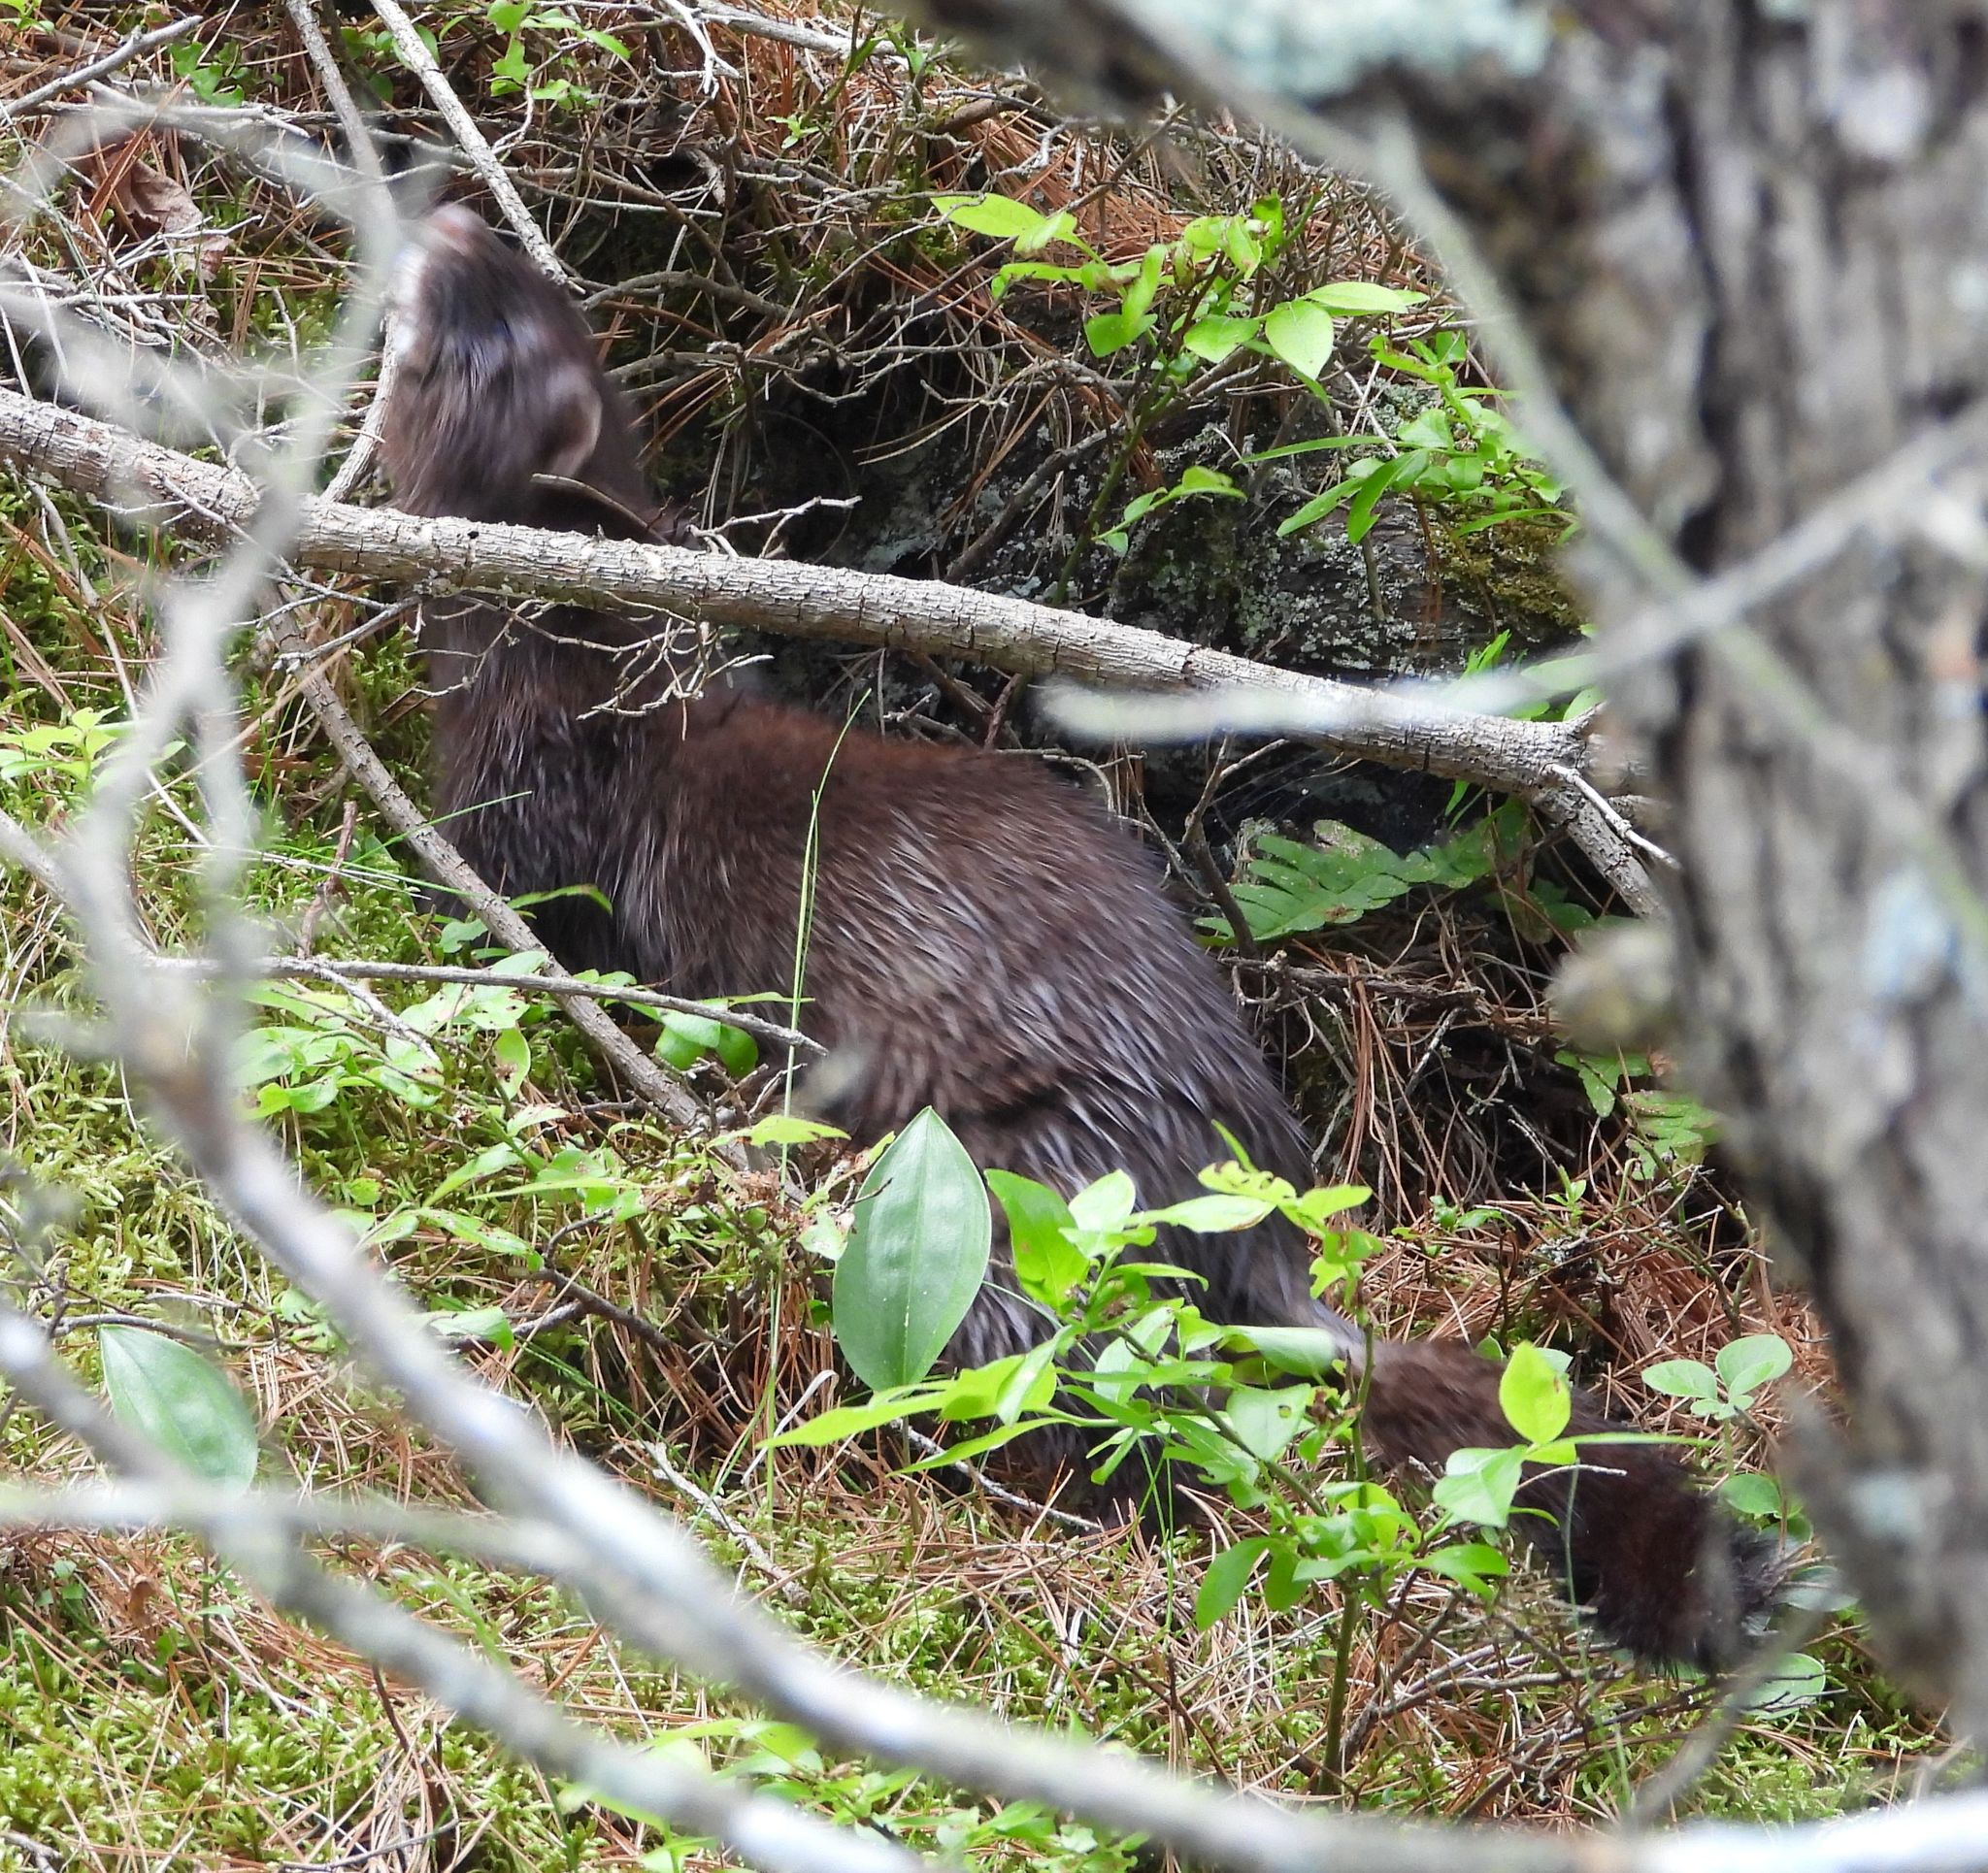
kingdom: Animalia
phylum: Chordata
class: Mammalia
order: Carnivora
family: Mustelidae
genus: Mustela
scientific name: Mustela
